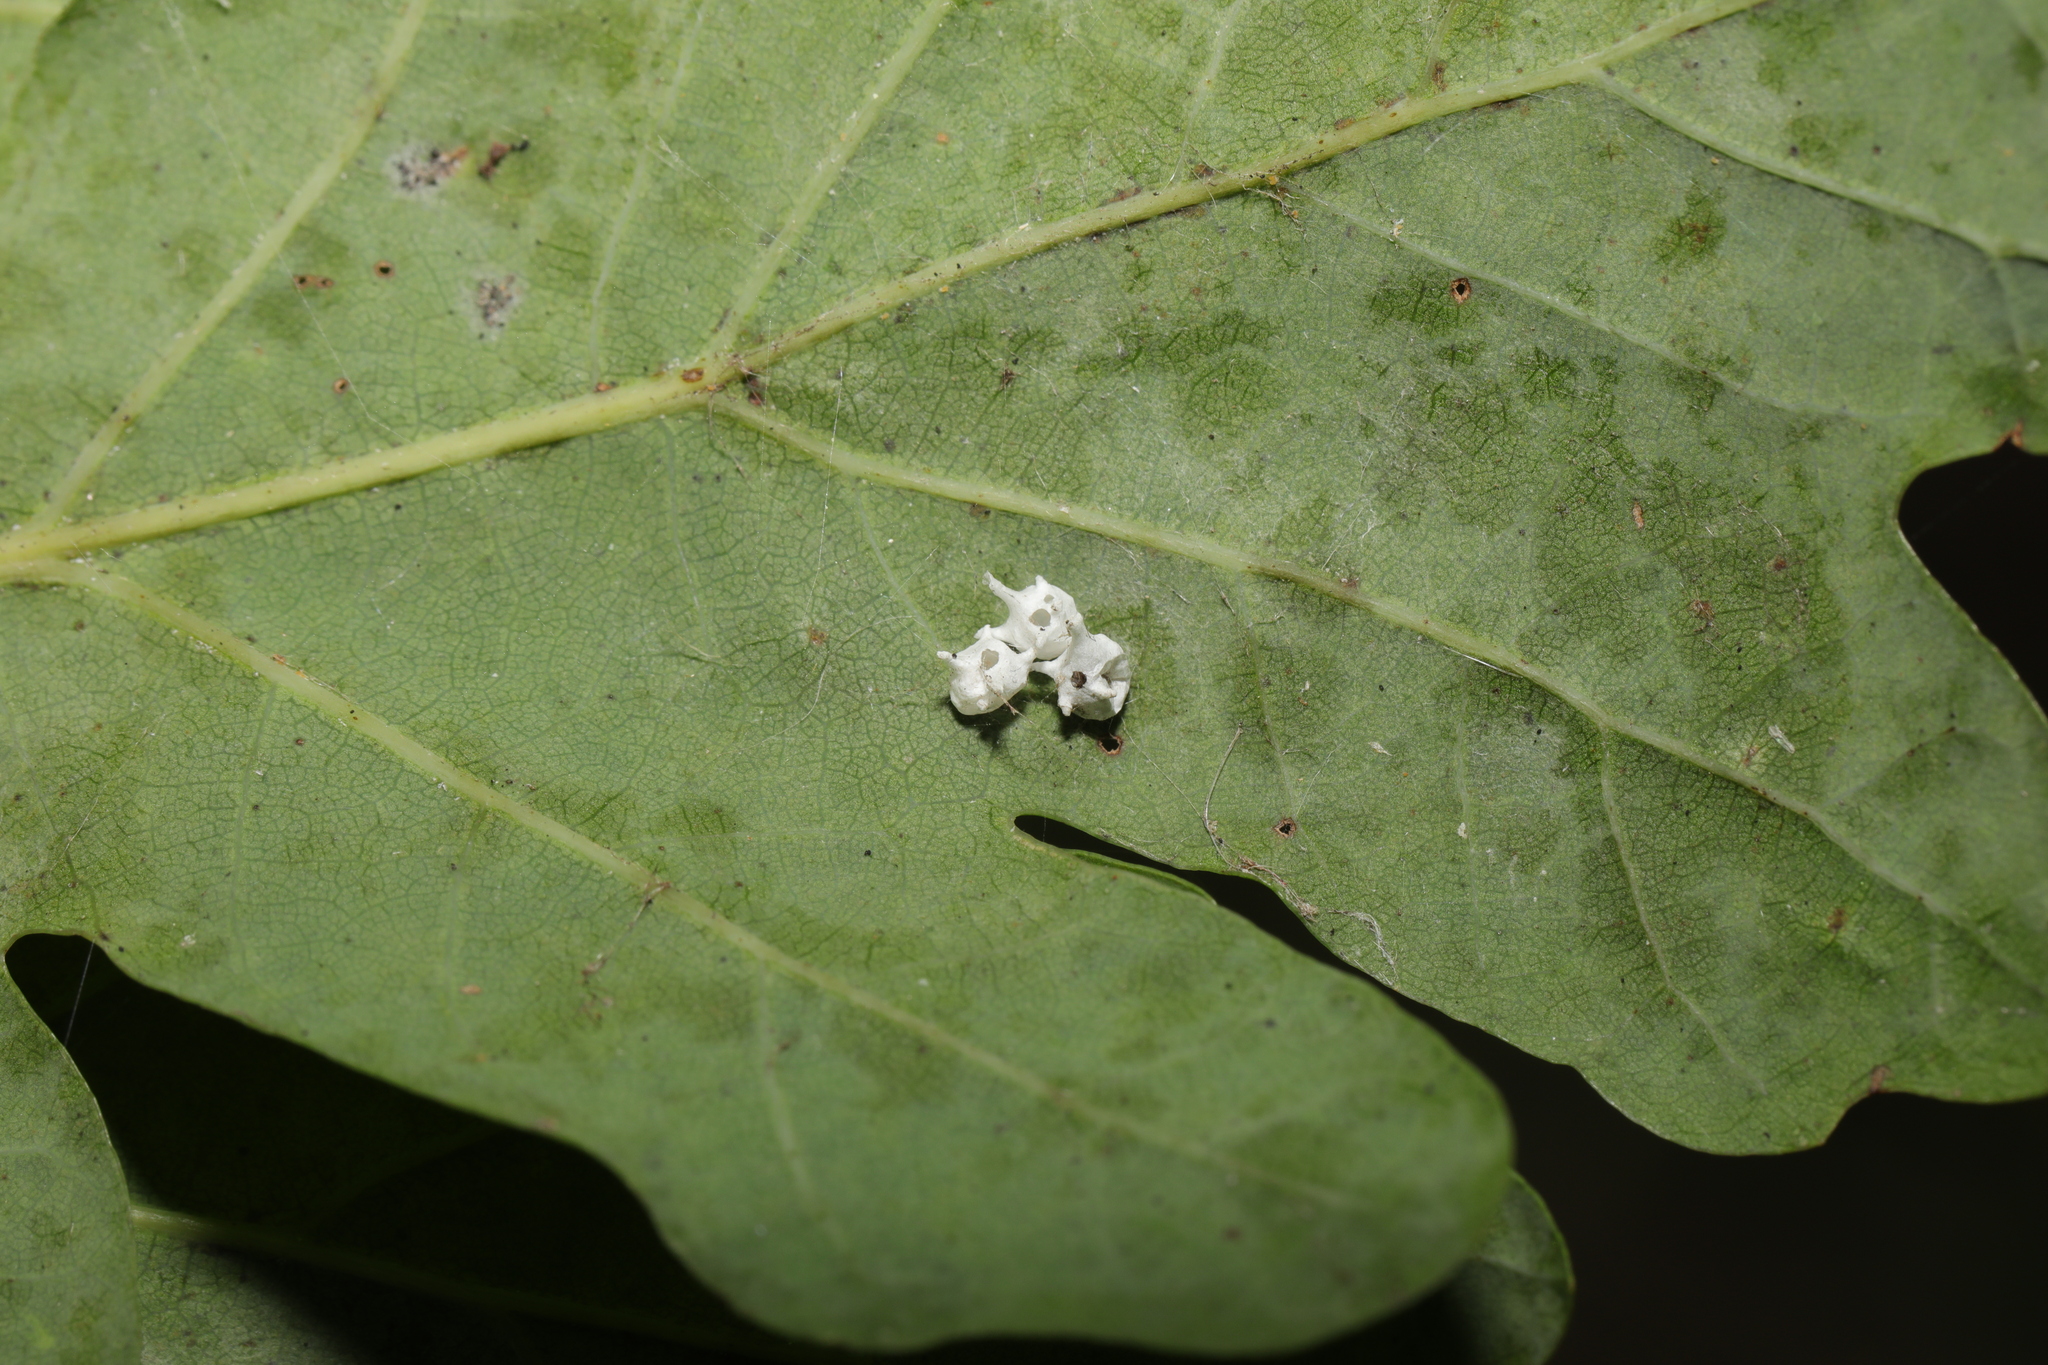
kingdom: Animalia
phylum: Arthropoda
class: Arachnida
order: Araneae
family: Theridiidae
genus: Paidiscura
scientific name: Paidiscura pallens
